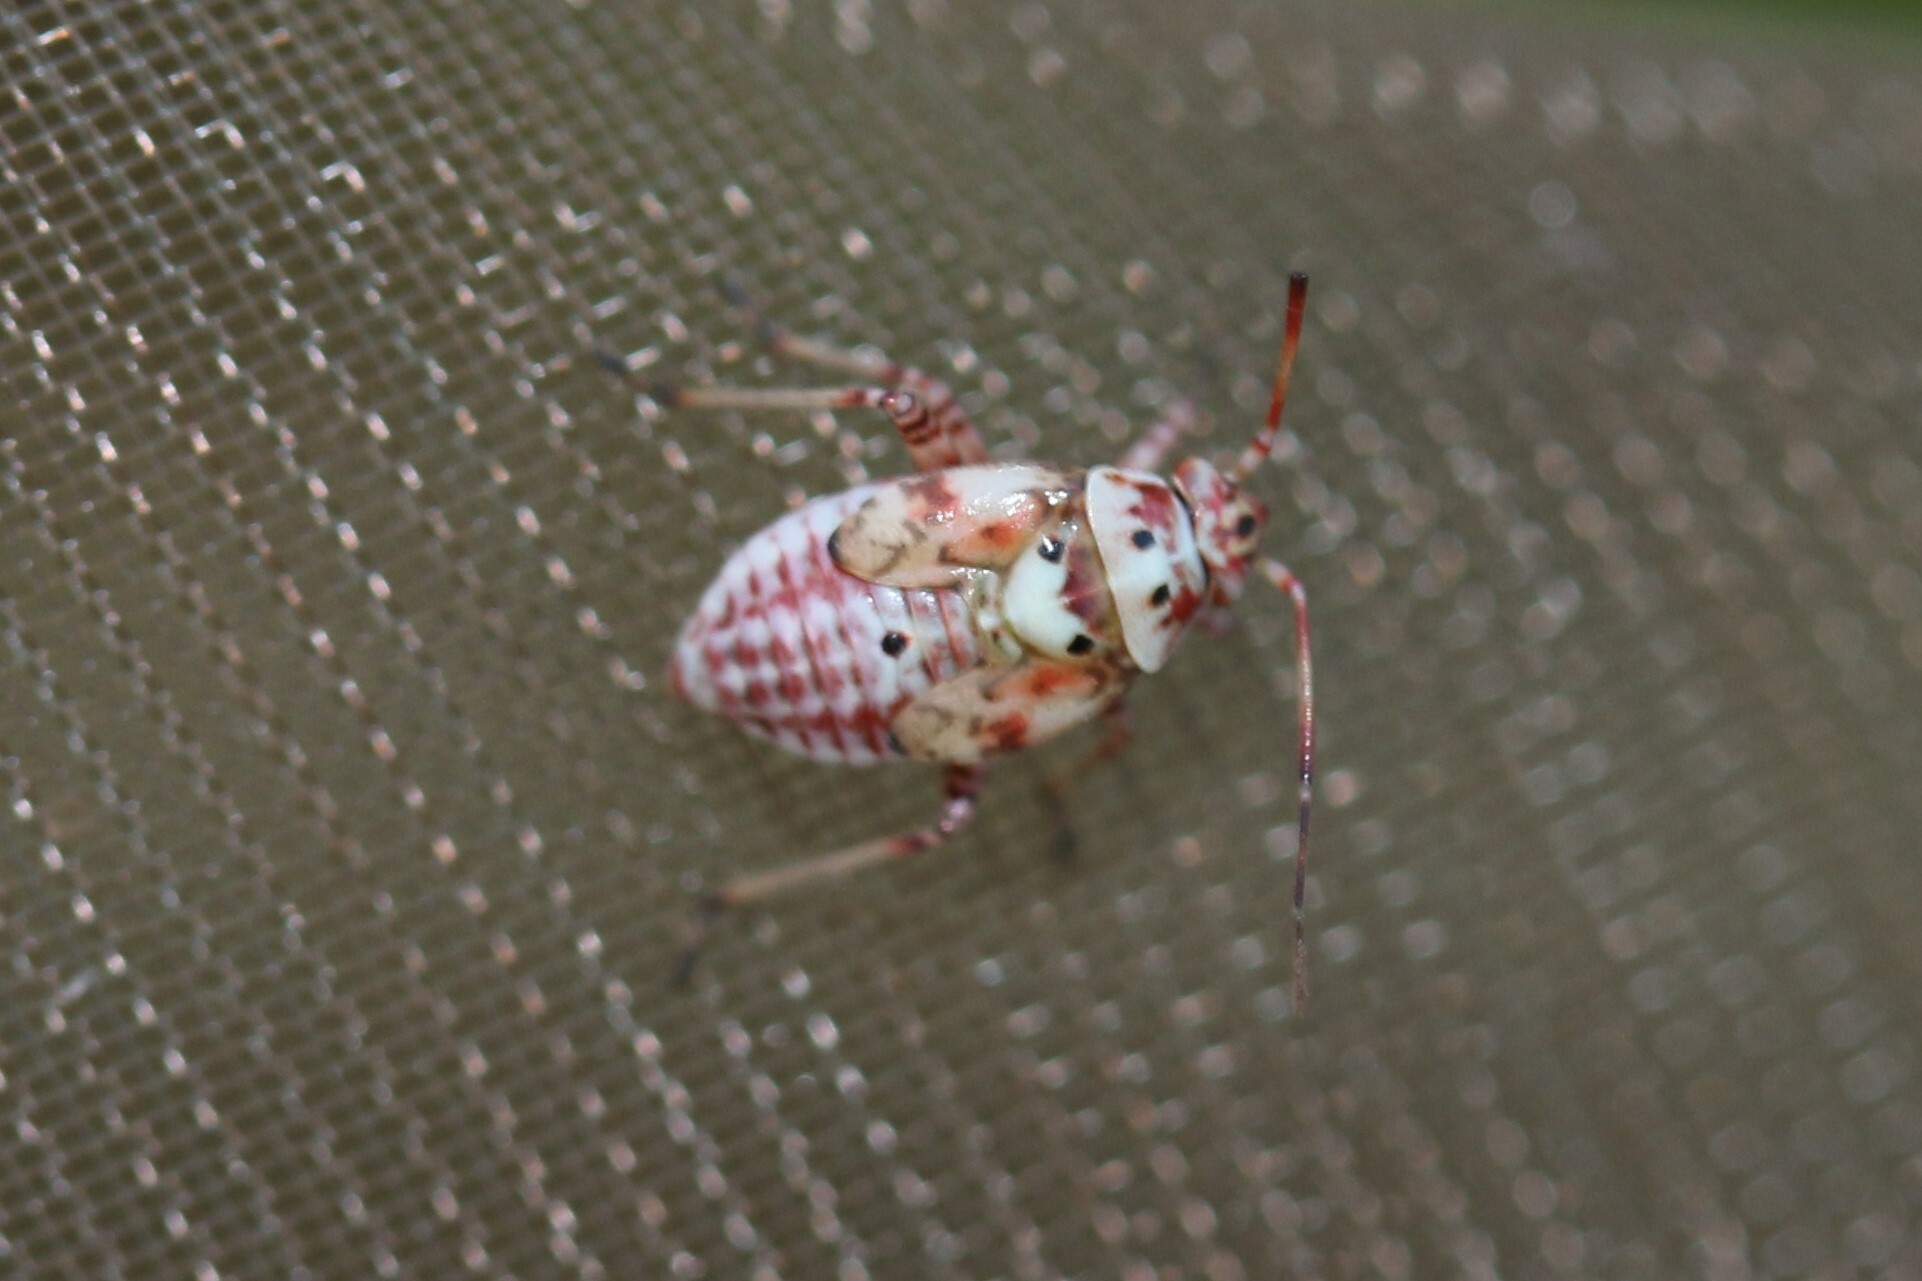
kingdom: Animalia
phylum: Arthropoda
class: Insecta
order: Hemiptera
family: Miridae
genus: Lygus
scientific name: Lygus pratensis
